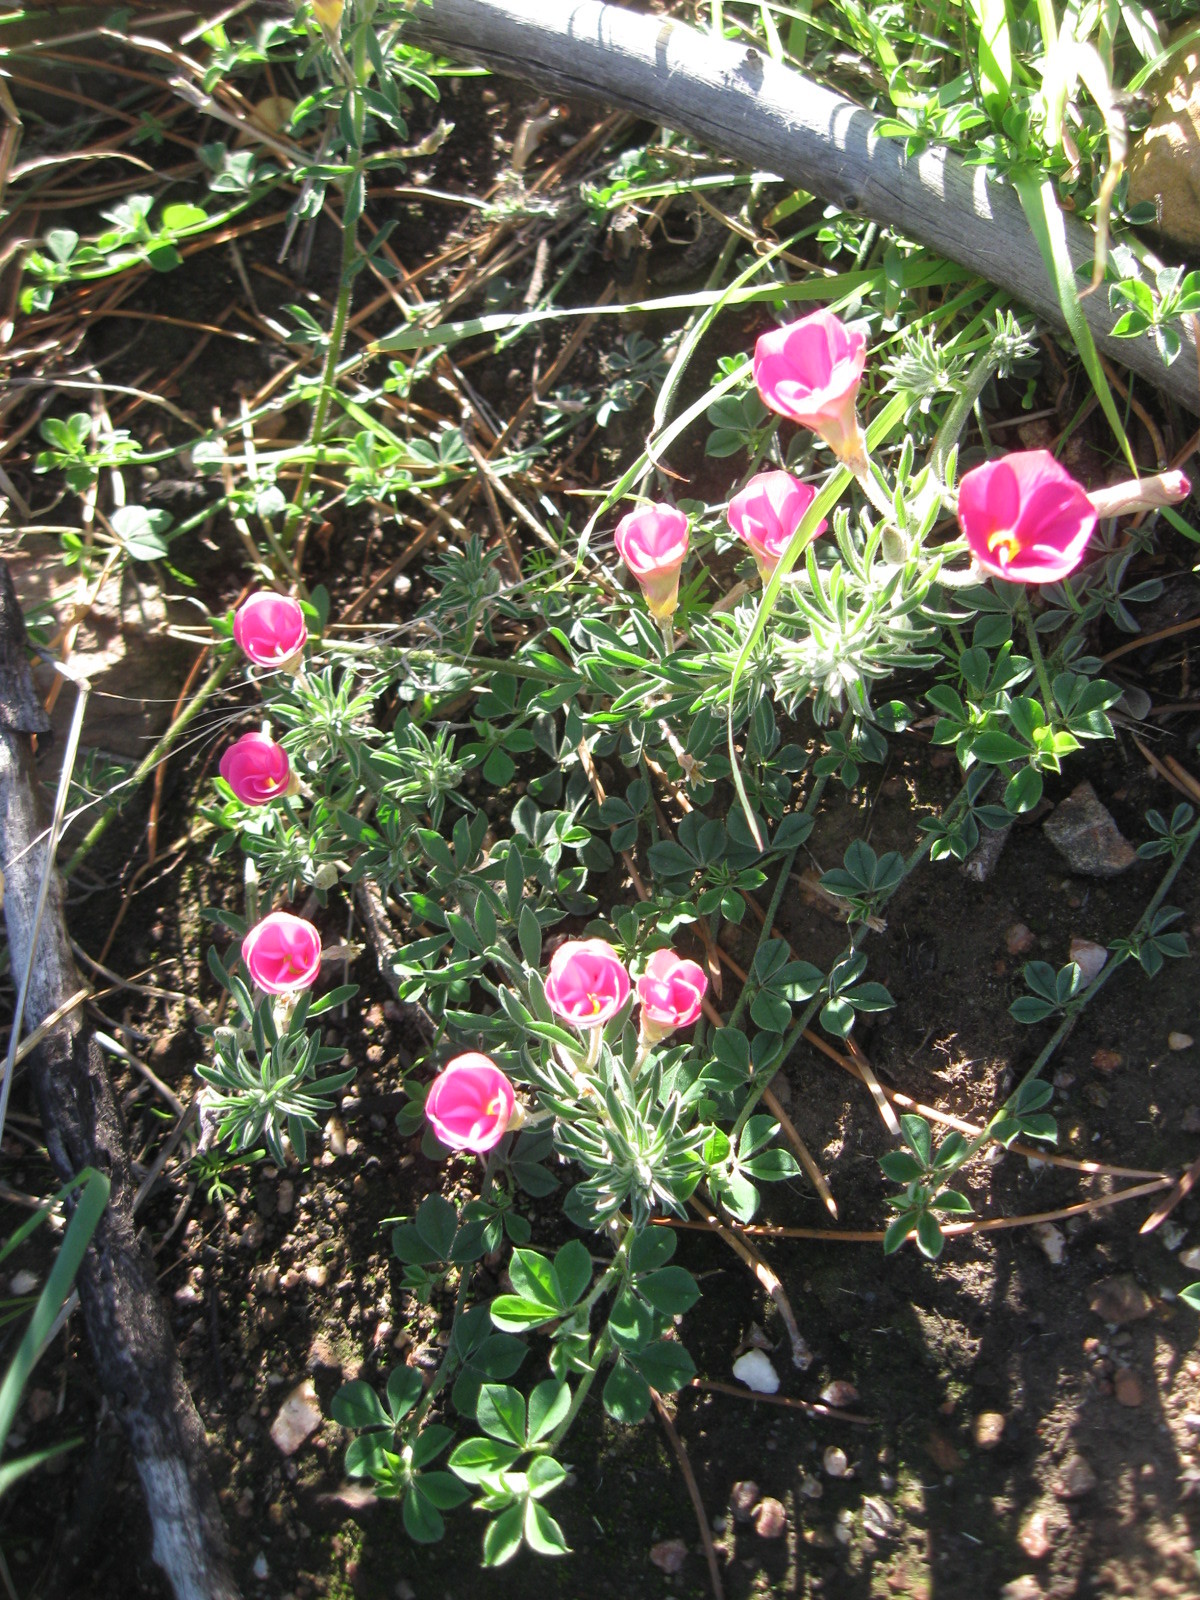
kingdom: Plantae
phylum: Tracheophyta
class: Magnoliopsida
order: Oxalidales
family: Oxalidaceae
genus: Oxalis
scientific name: Oxalis hirta
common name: Tropical woodsorrel
